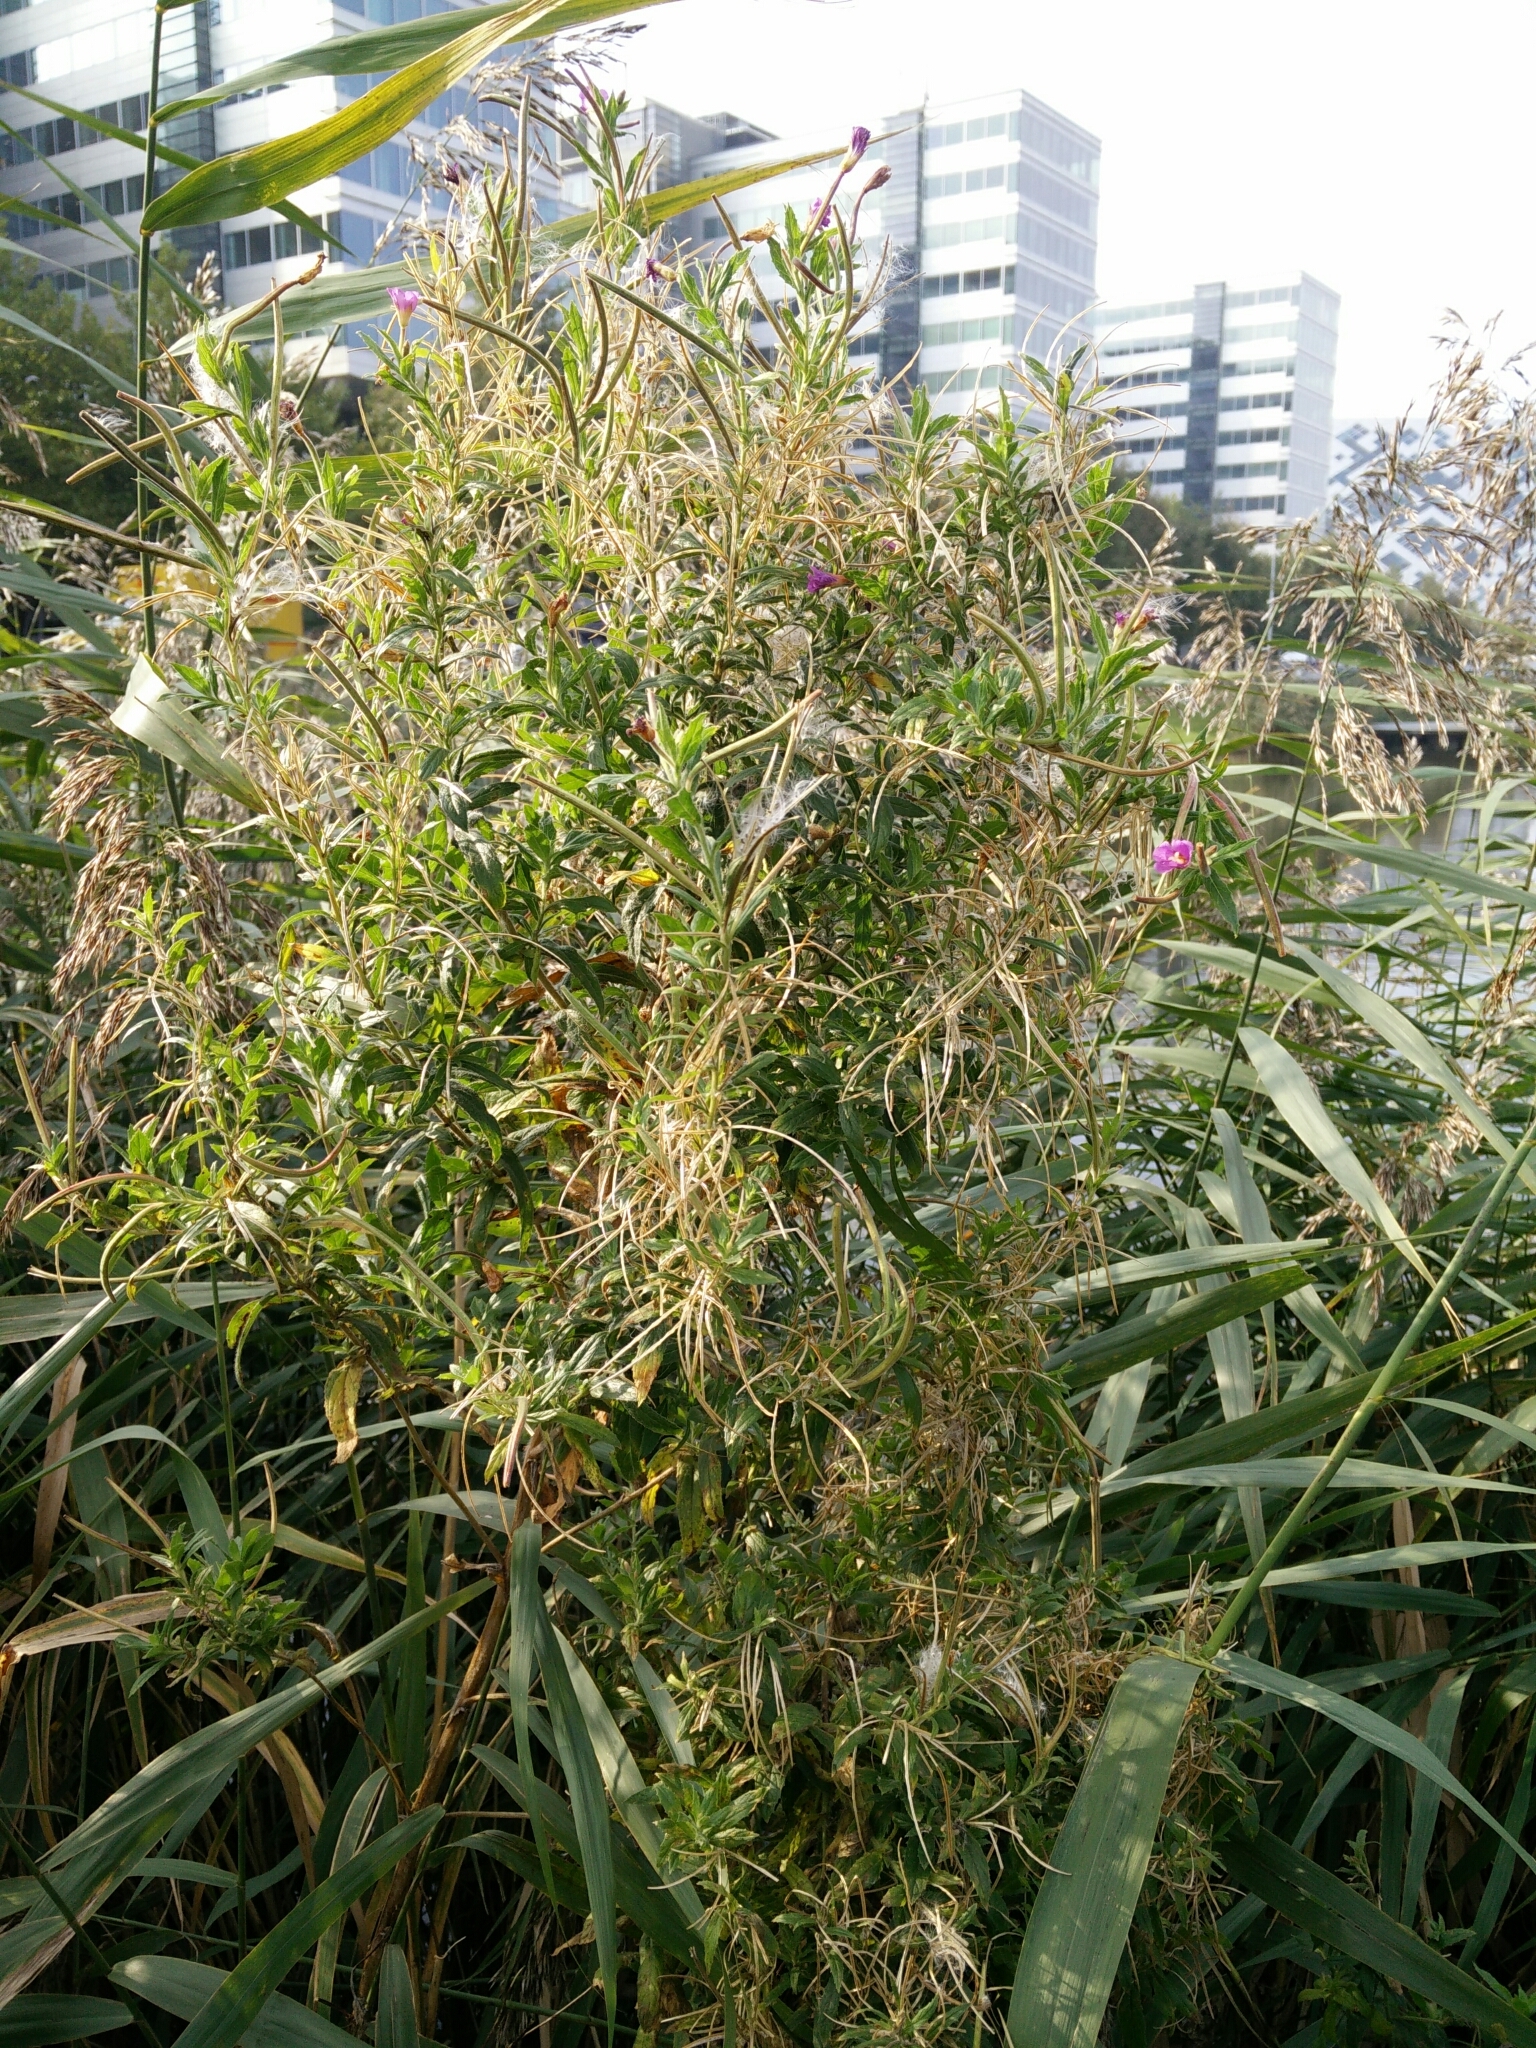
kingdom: Plantae
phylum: Tracheophyta
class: Magnoliopsida
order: Myrtales
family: Onagraceae
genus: Epilobium
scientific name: Epilobium hirsutum
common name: Great willowherb
